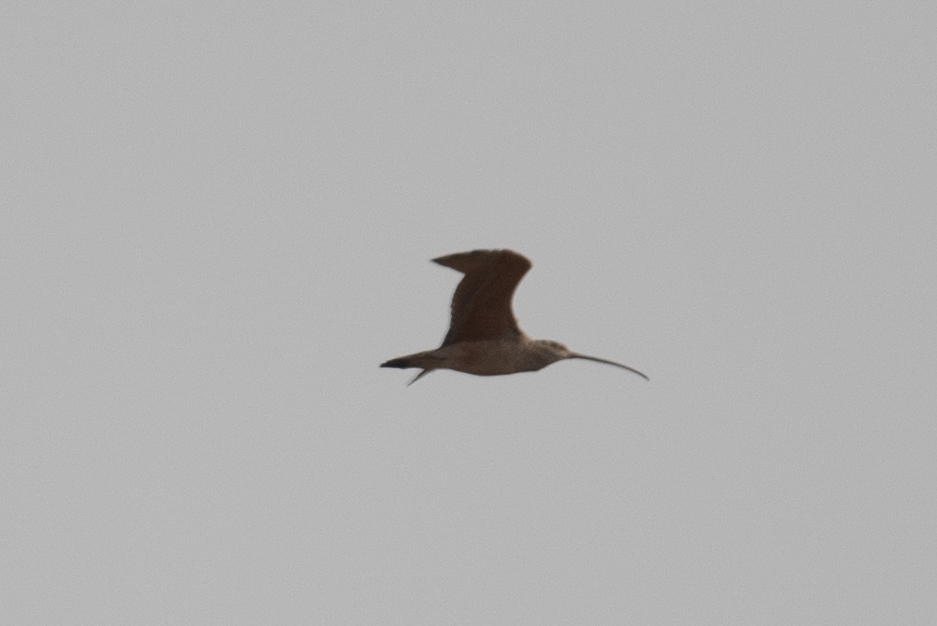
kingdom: Animalia
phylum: Chordata
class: Aves
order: Charadriiformes
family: Scolopacidae
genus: Numenius
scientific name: Numenius americanus
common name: Long-billed curlew
